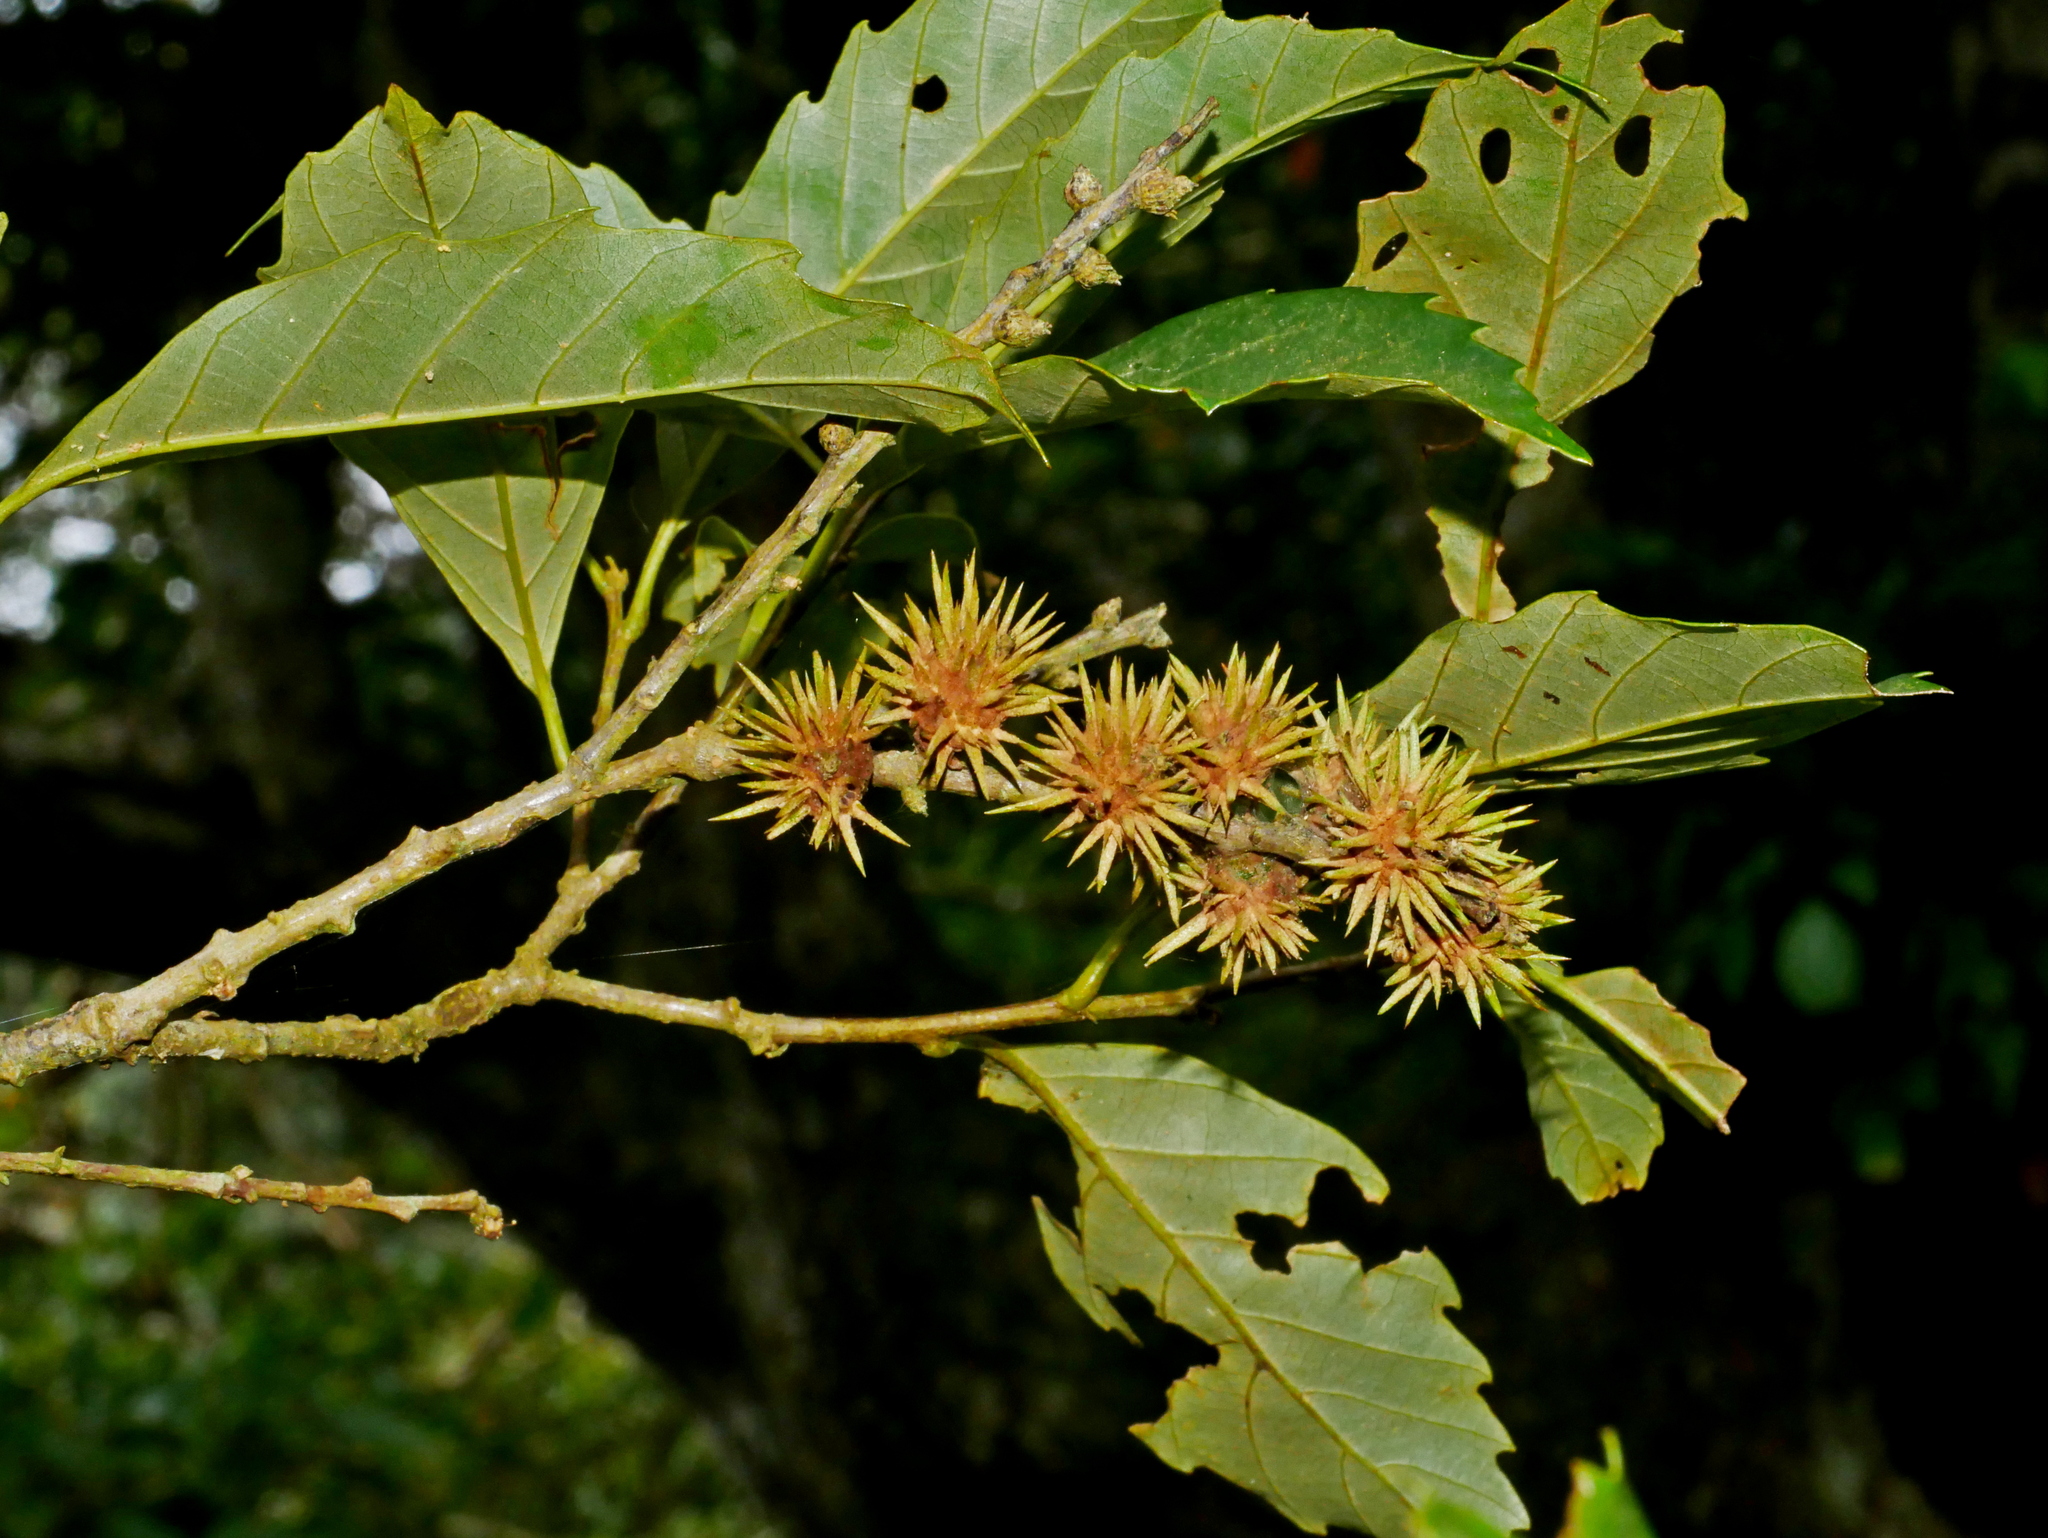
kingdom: Plantae
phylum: Tracheophyta
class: Magnoliopsida
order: Fagales
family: Fagaceae
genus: Castanopsis
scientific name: Castanopsis formosana
